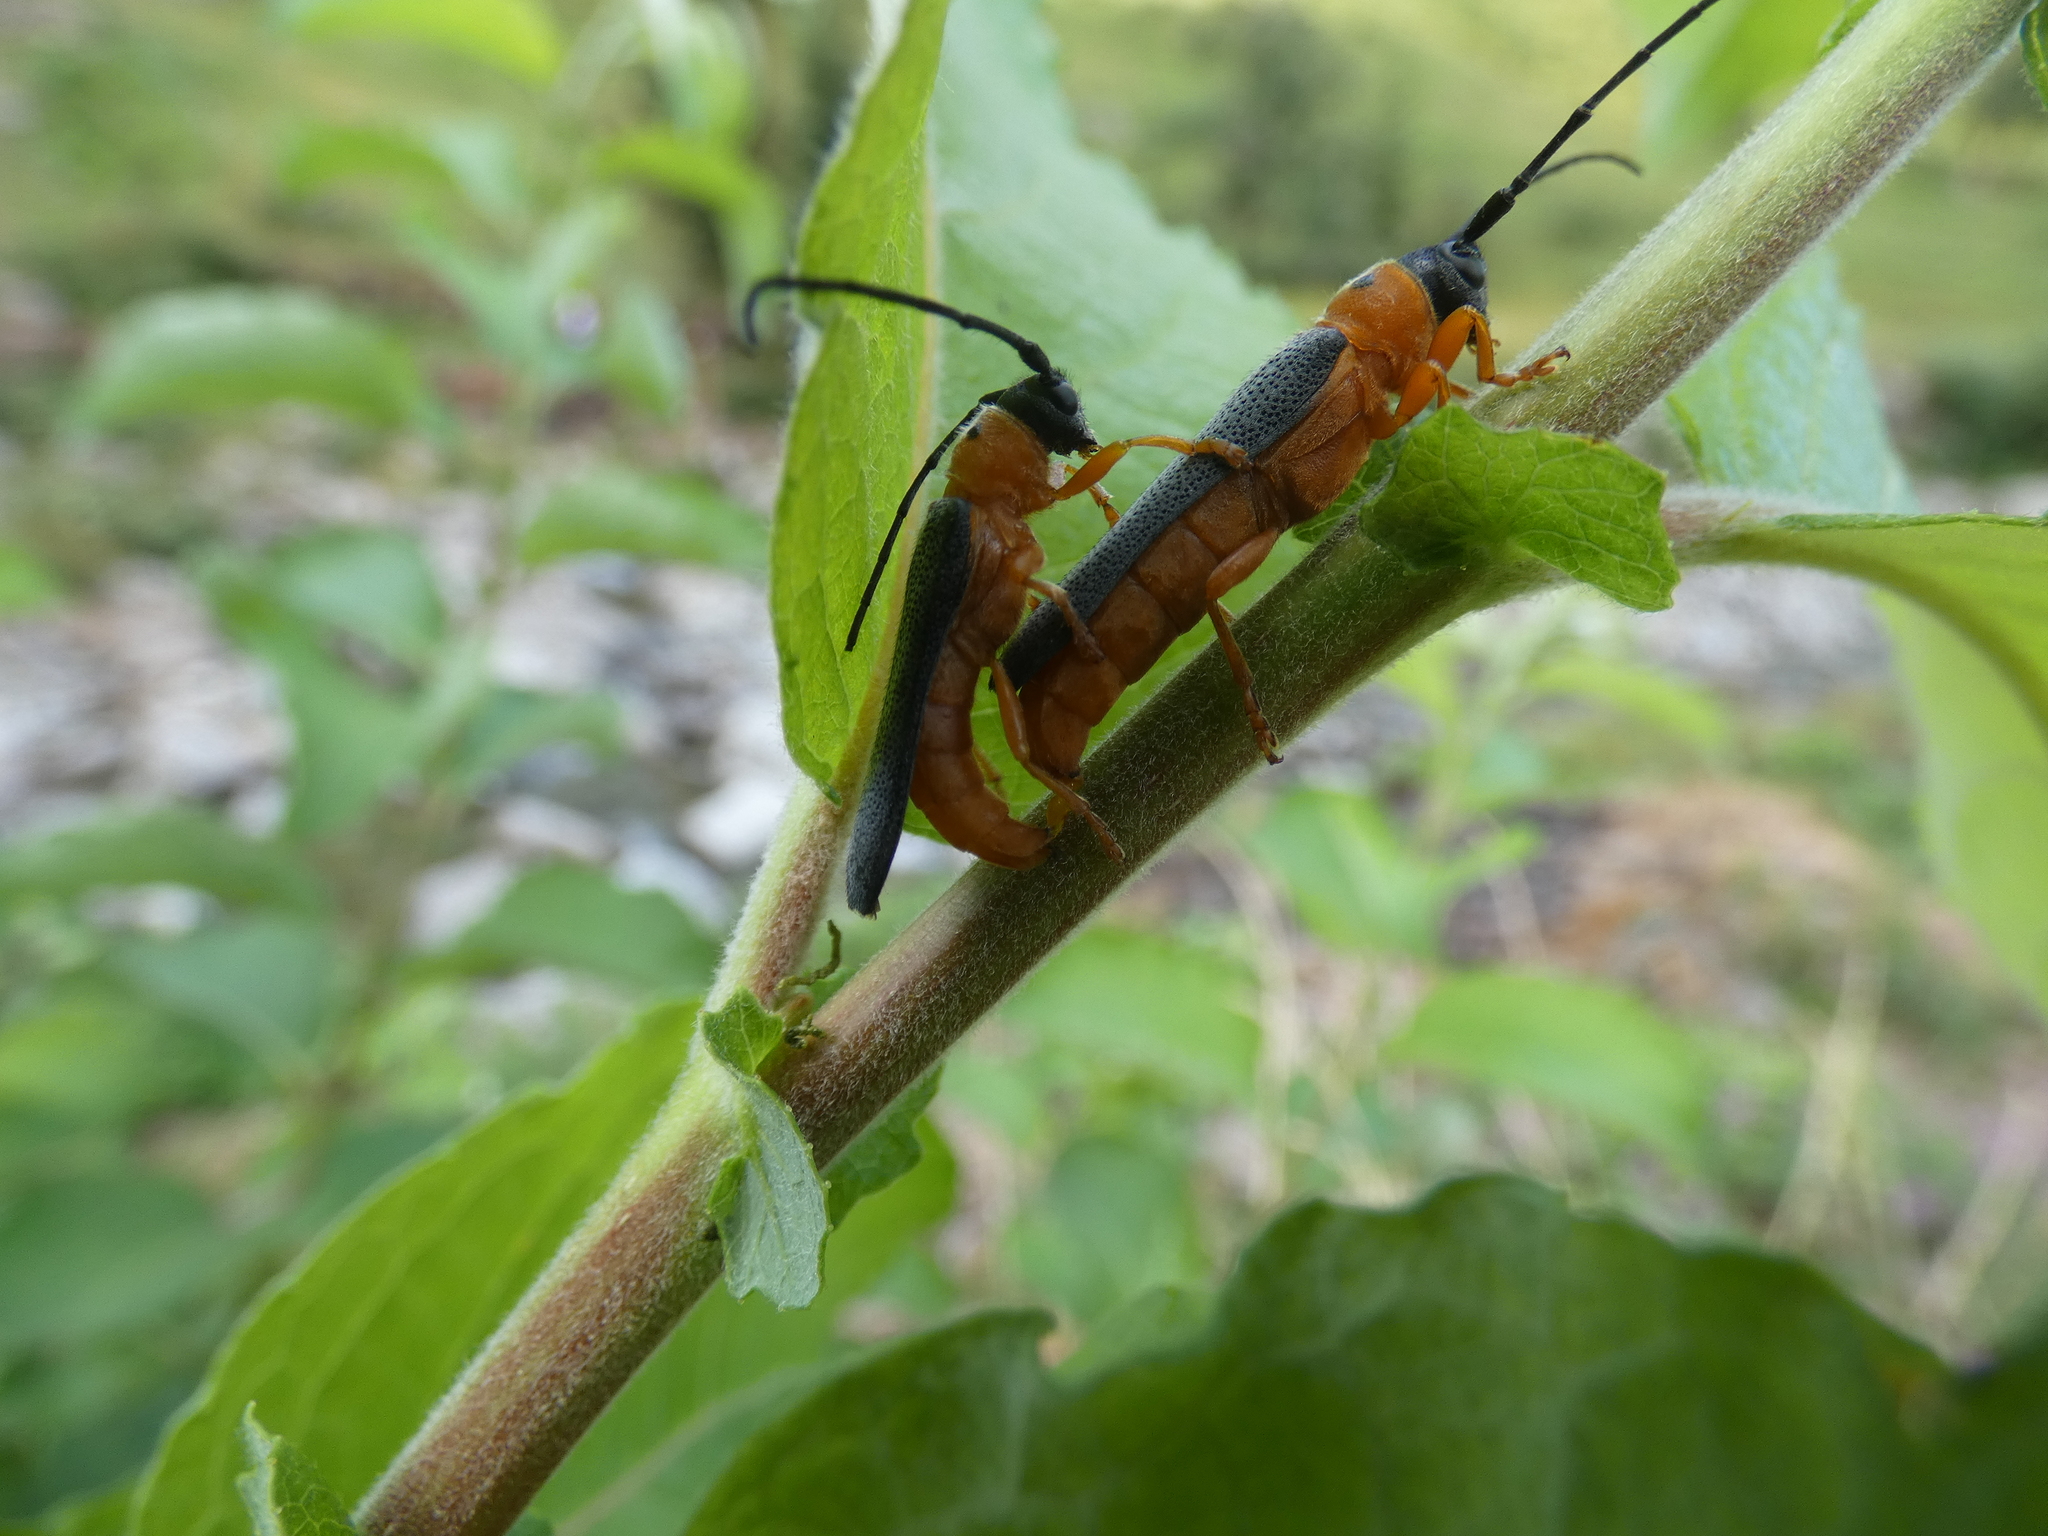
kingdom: Animalia
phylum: Arthropoda
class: Insecta
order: Coleoptera
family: Cerambycidae
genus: Oberea
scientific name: Oberea oculata
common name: Eyed longhorn beetle
